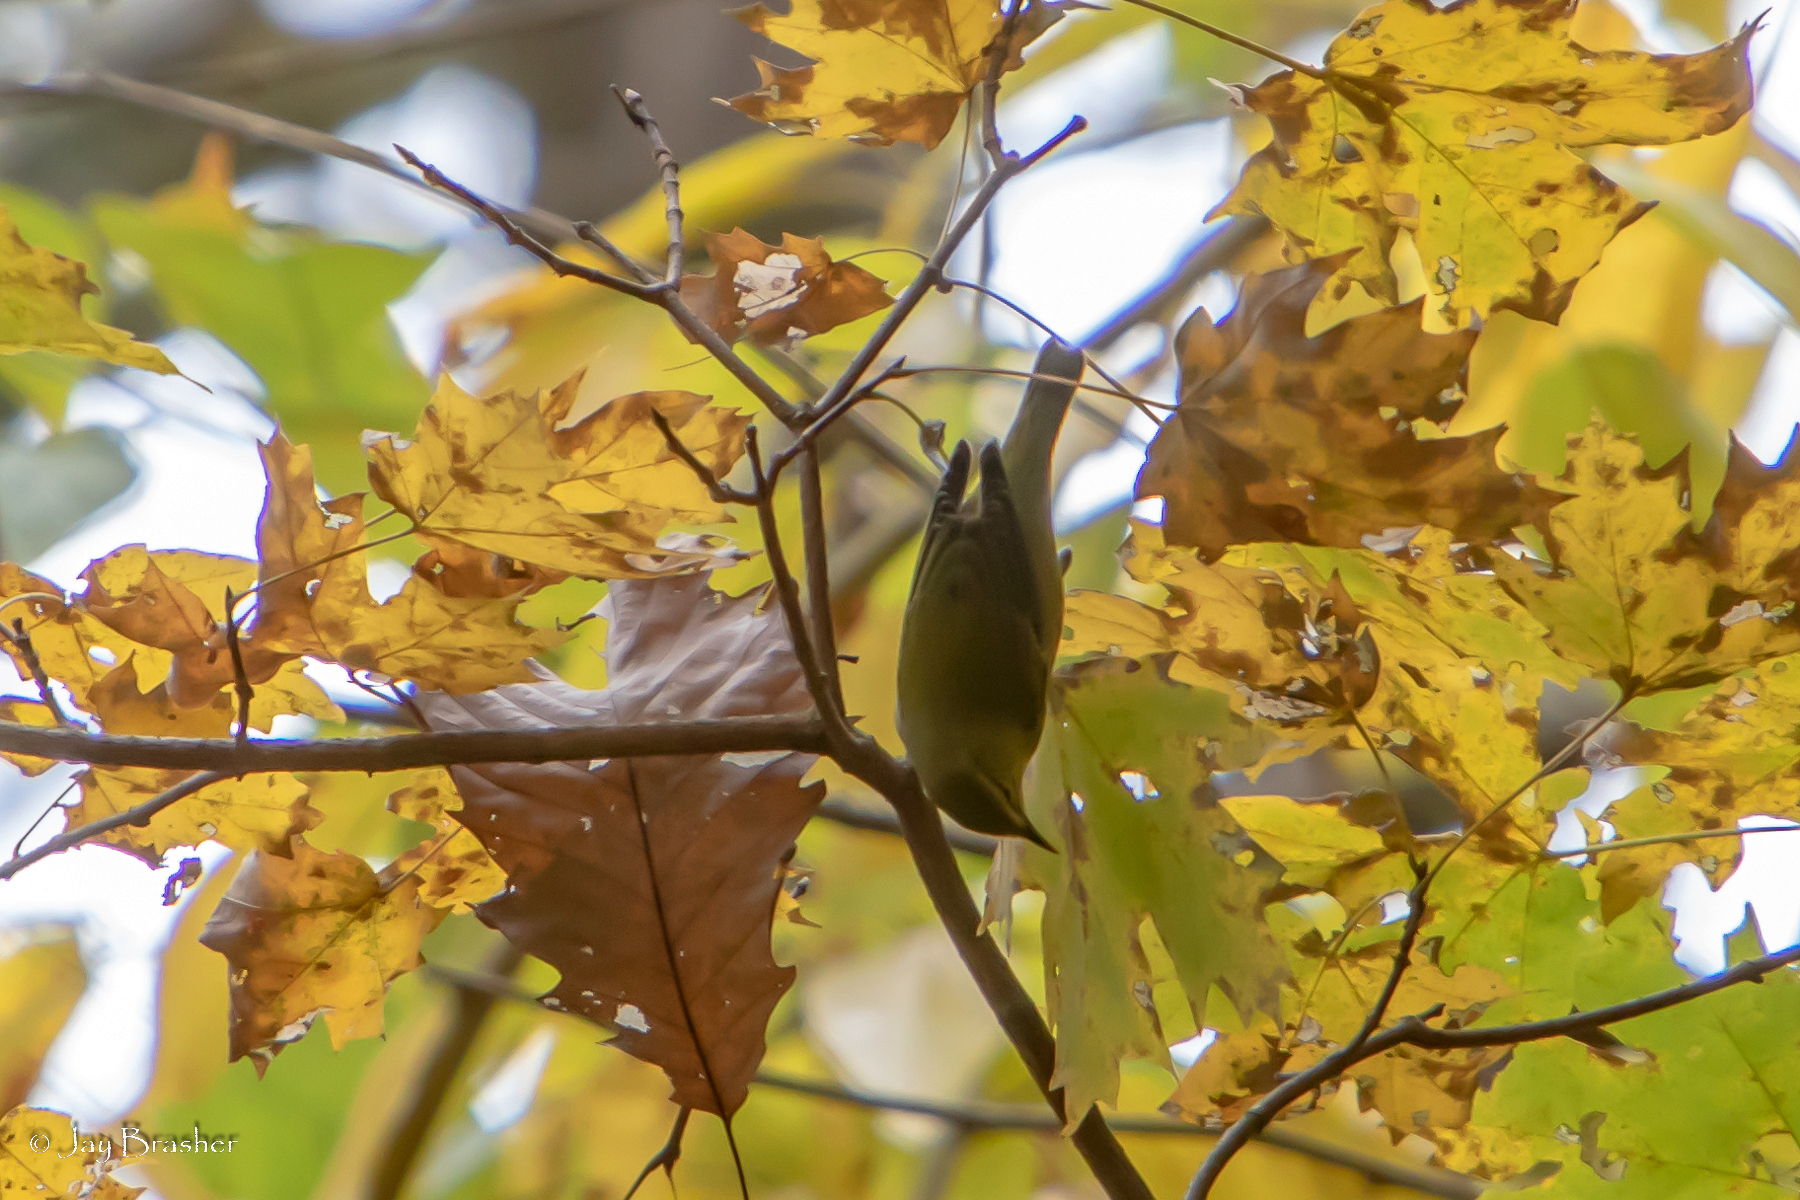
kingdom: Animalia
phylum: Chordata
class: Aves
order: Passeriformes
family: Parulidae
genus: Leiothlypis
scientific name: Leiothlypis peregrina
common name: Tennessee warbler
